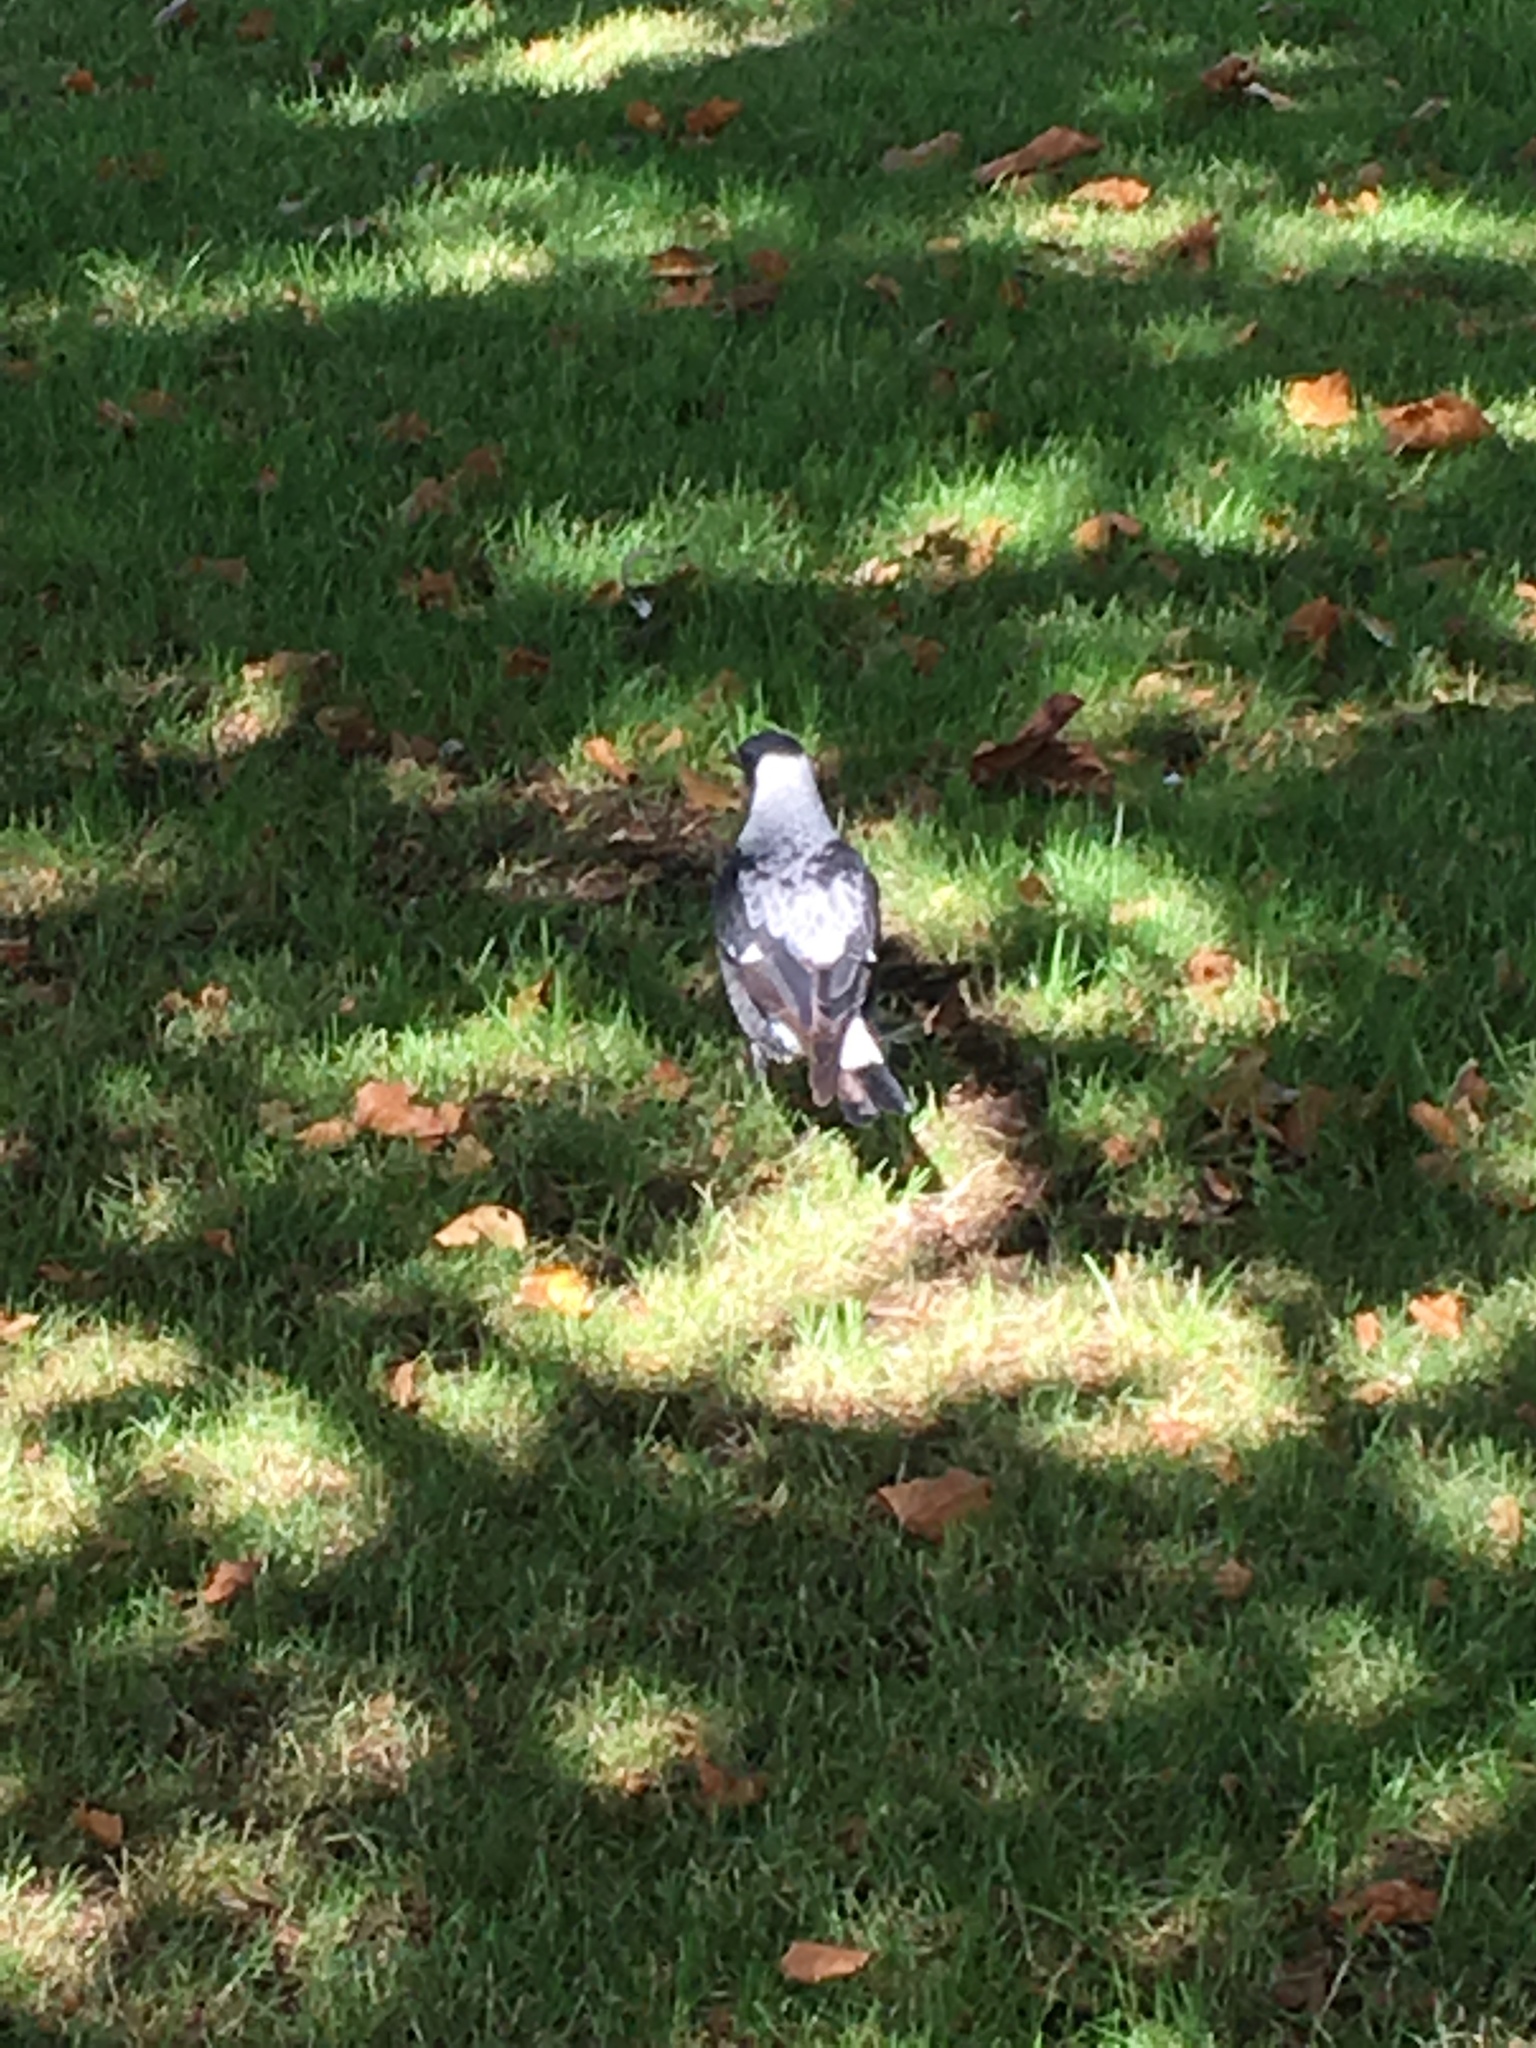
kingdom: Animalia
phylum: Chordata
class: Aves
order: Passeriformes
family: Cracticidae
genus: Gymnorhina
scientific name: Gymnorhina tibicen
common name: Australian magpie
